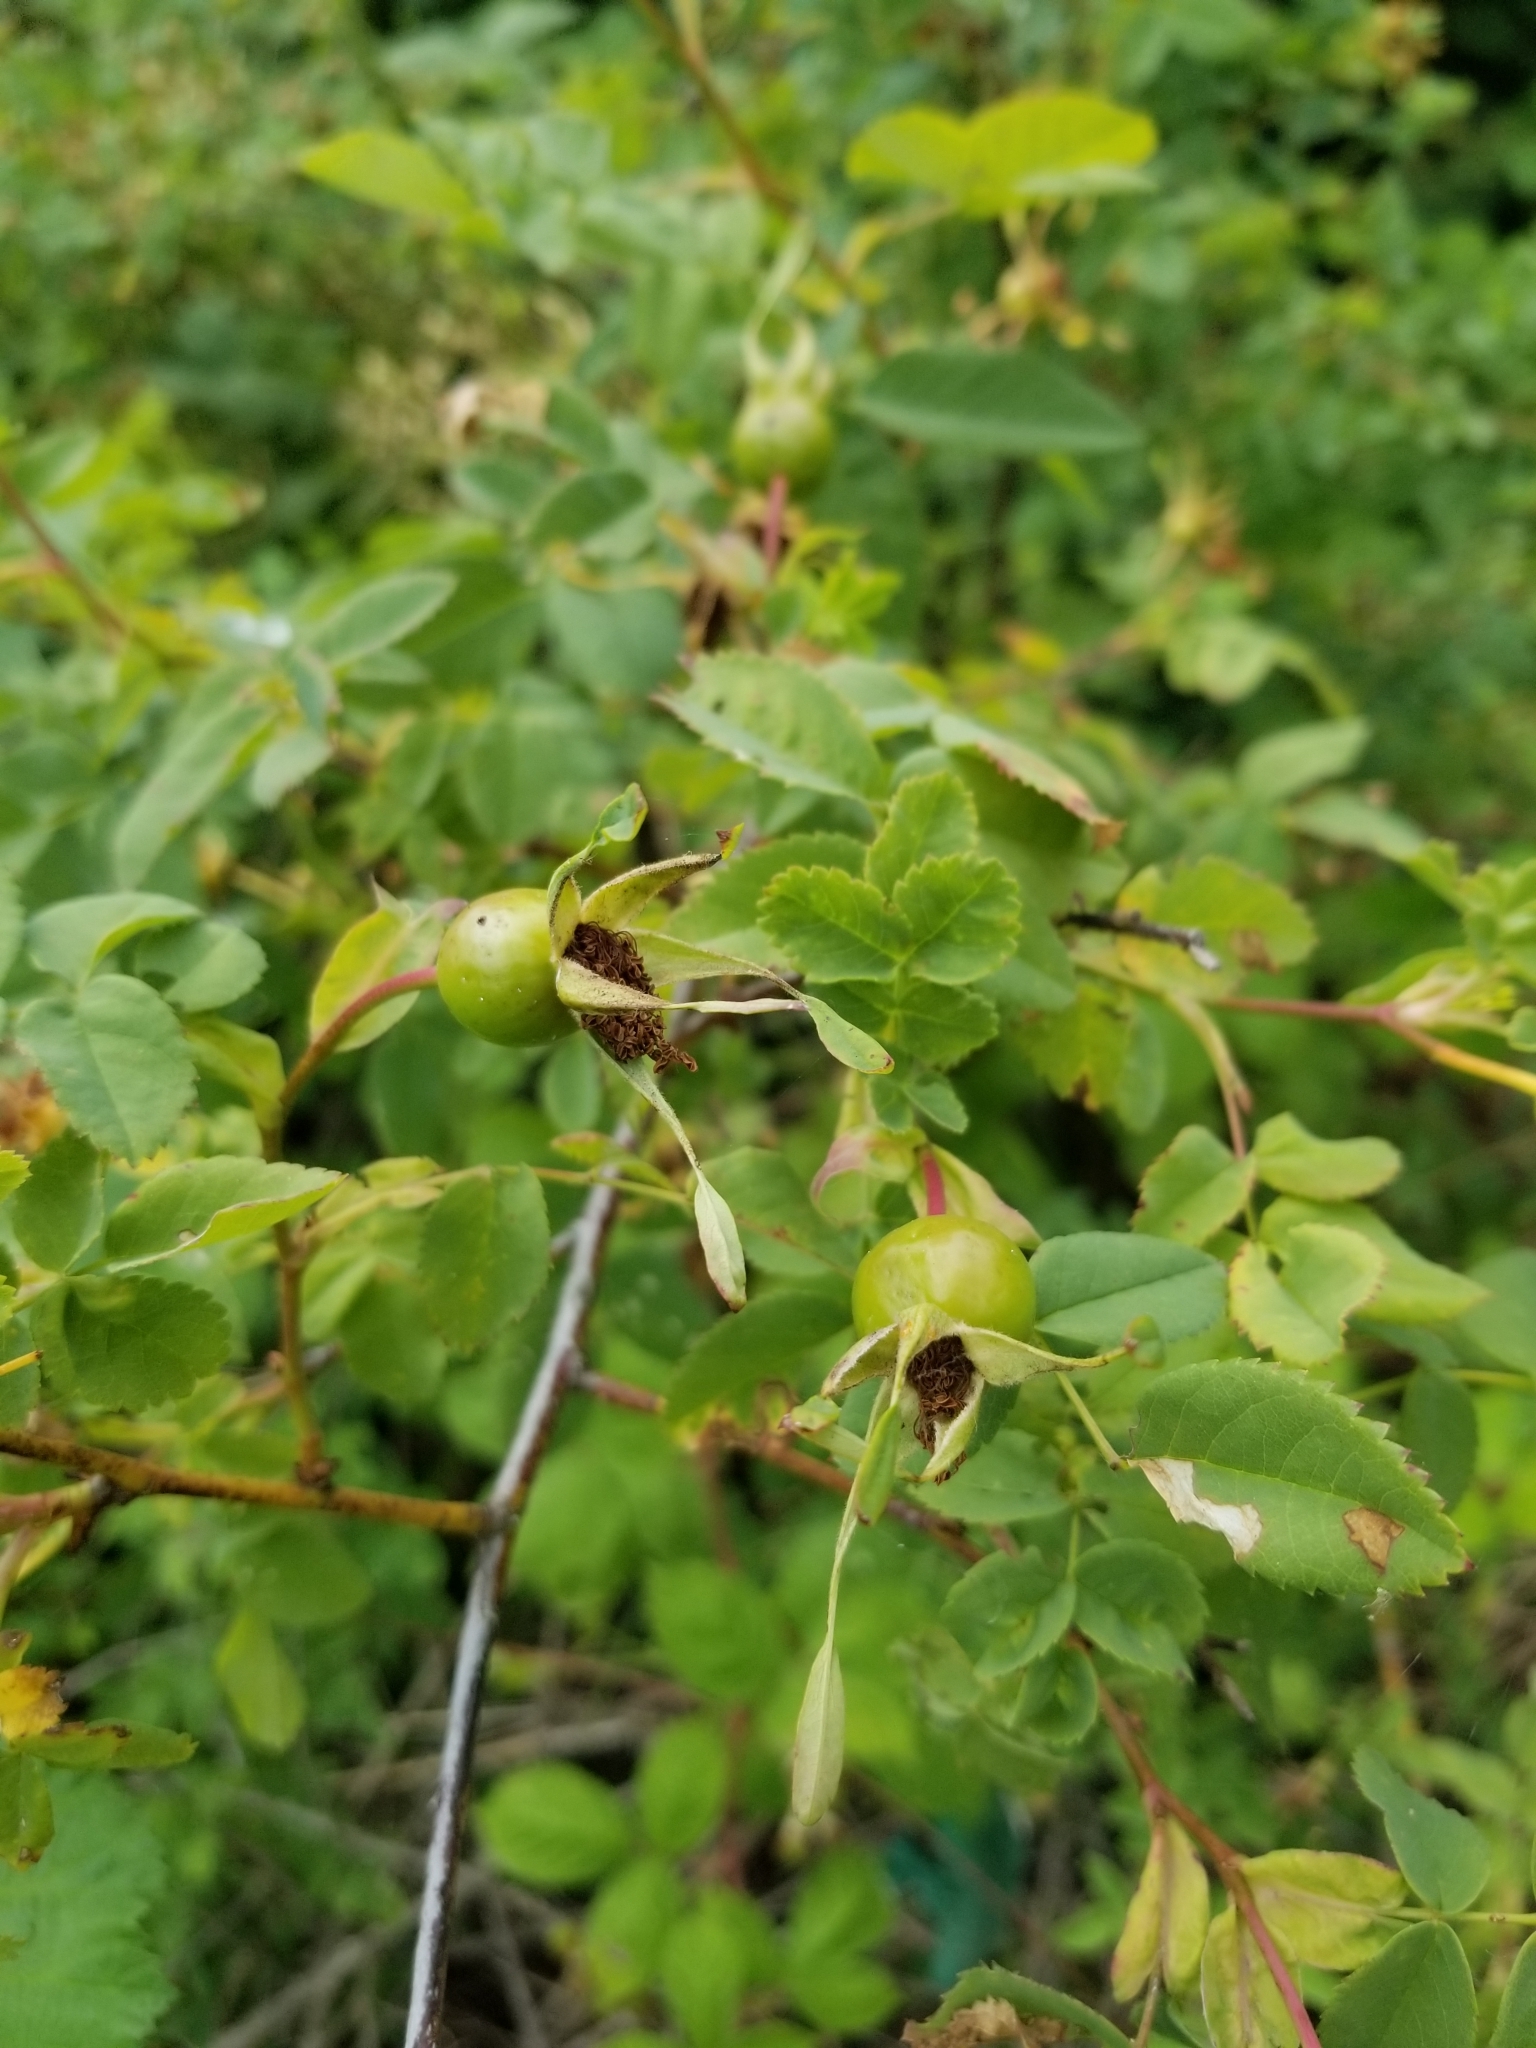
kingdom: Plantae
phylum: Tracheophyta
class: Magnoliopsida
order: Rosales
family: Rosaceae
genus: Rosa
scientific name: Rosa nutkana
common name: Nootka rose
